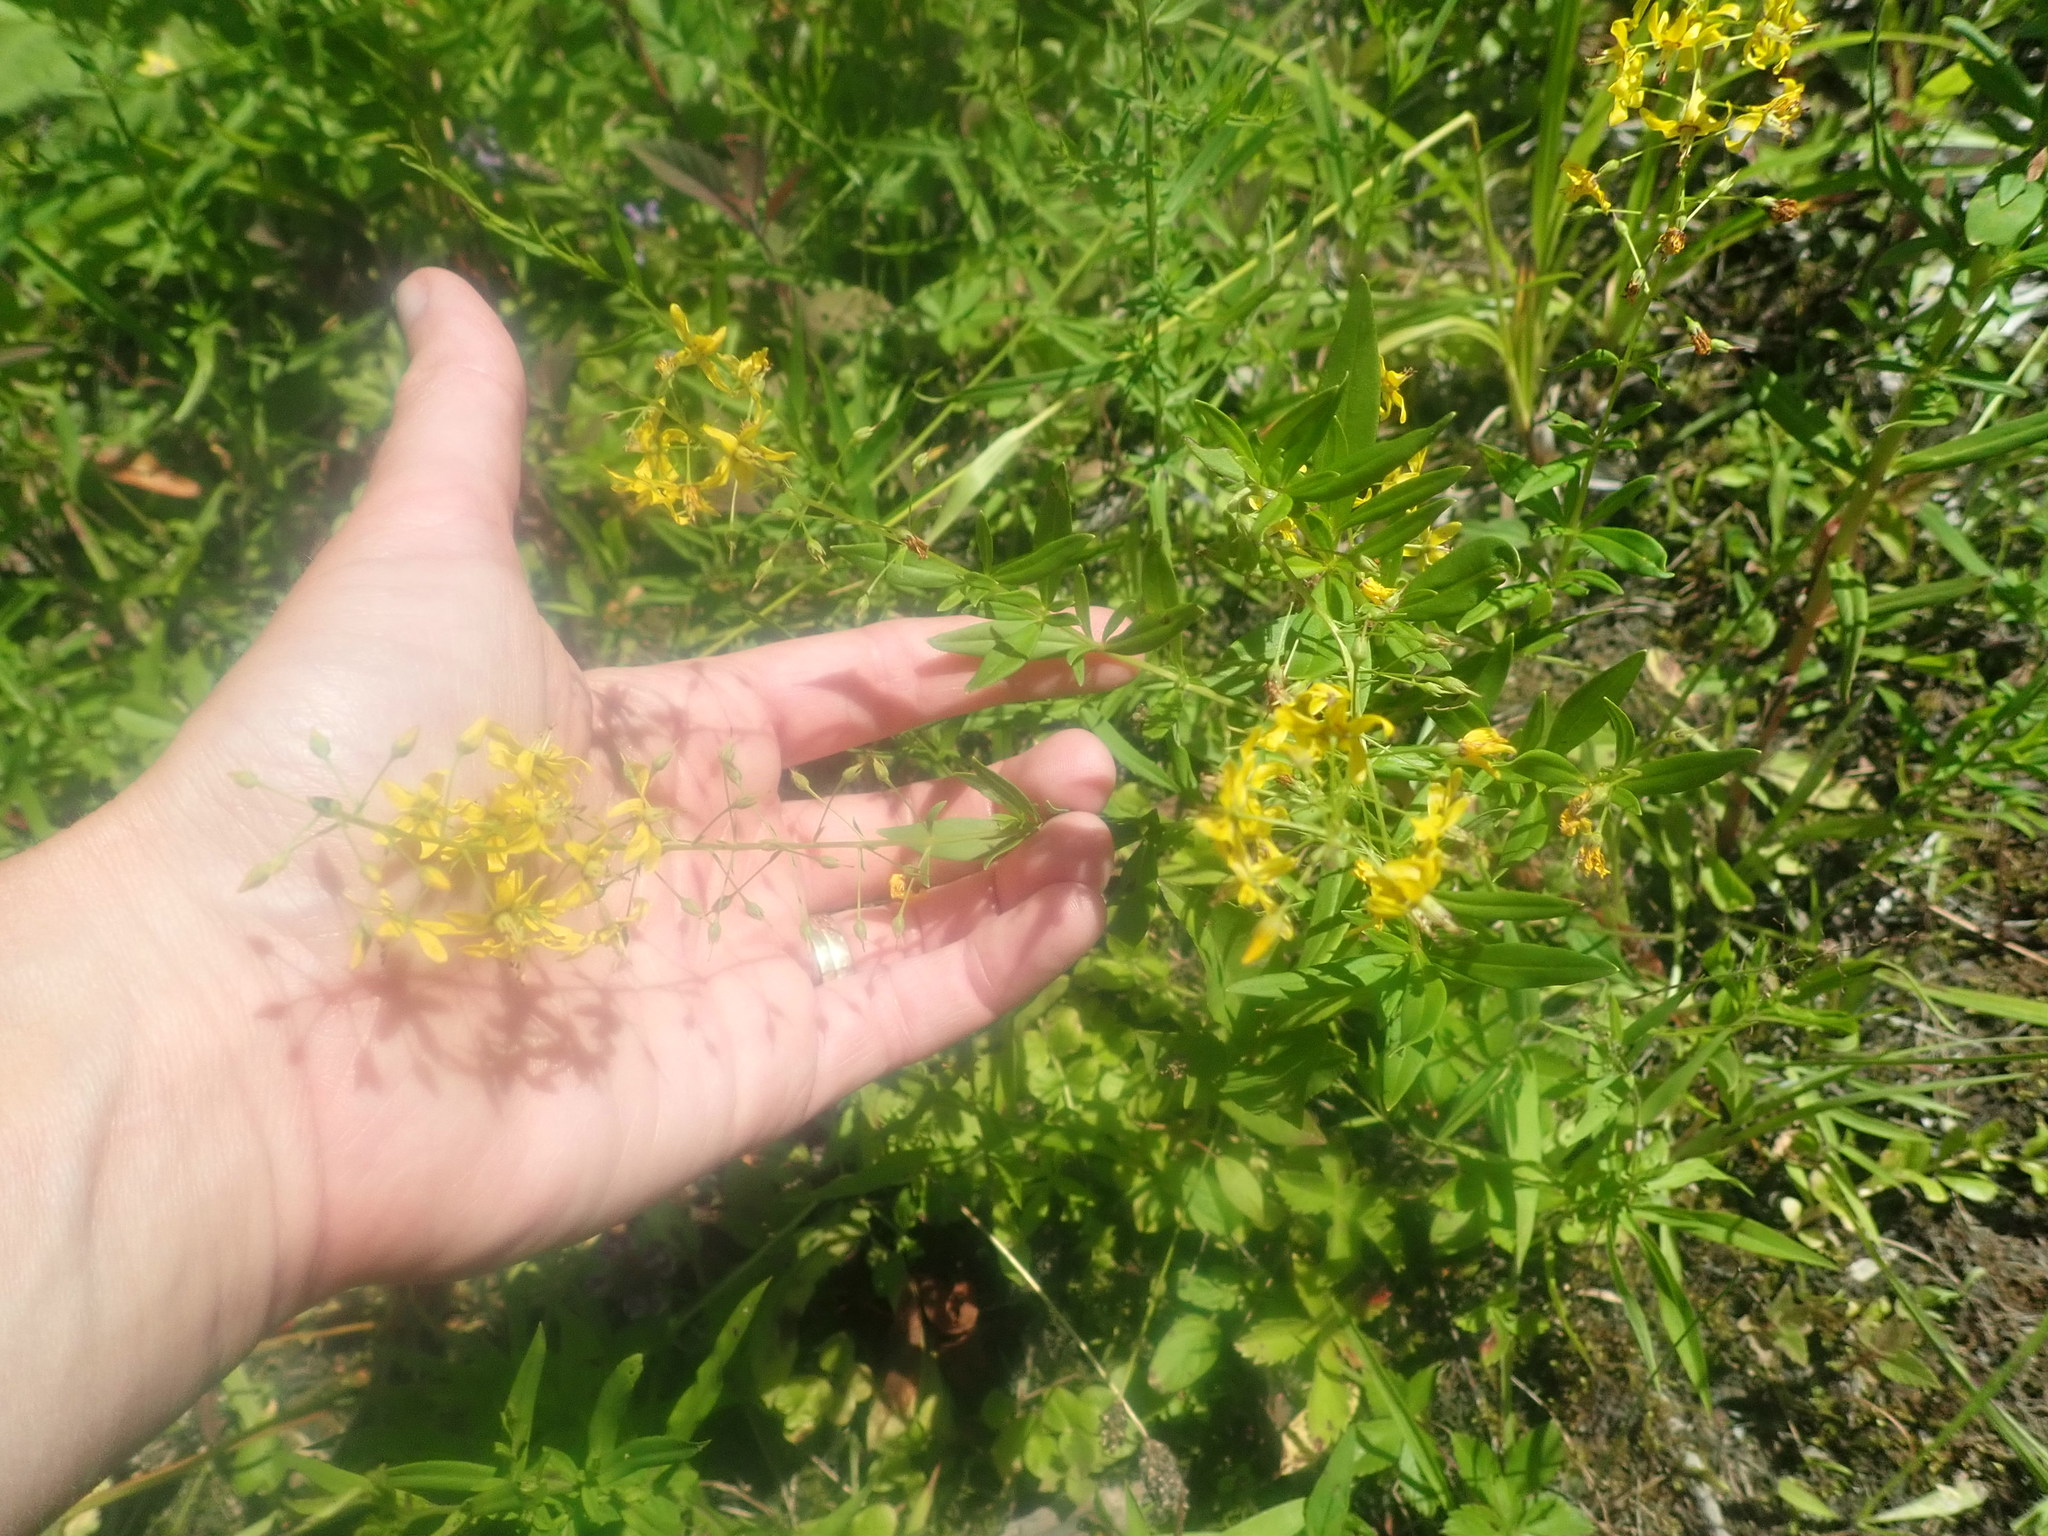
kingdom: Plantae
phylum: Tracheophyta
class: Magnoliopsida
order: Ericales
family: Primulaceae
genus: Lysimachia
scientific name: Lysimachia terrestris
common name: Lake loosestrife
